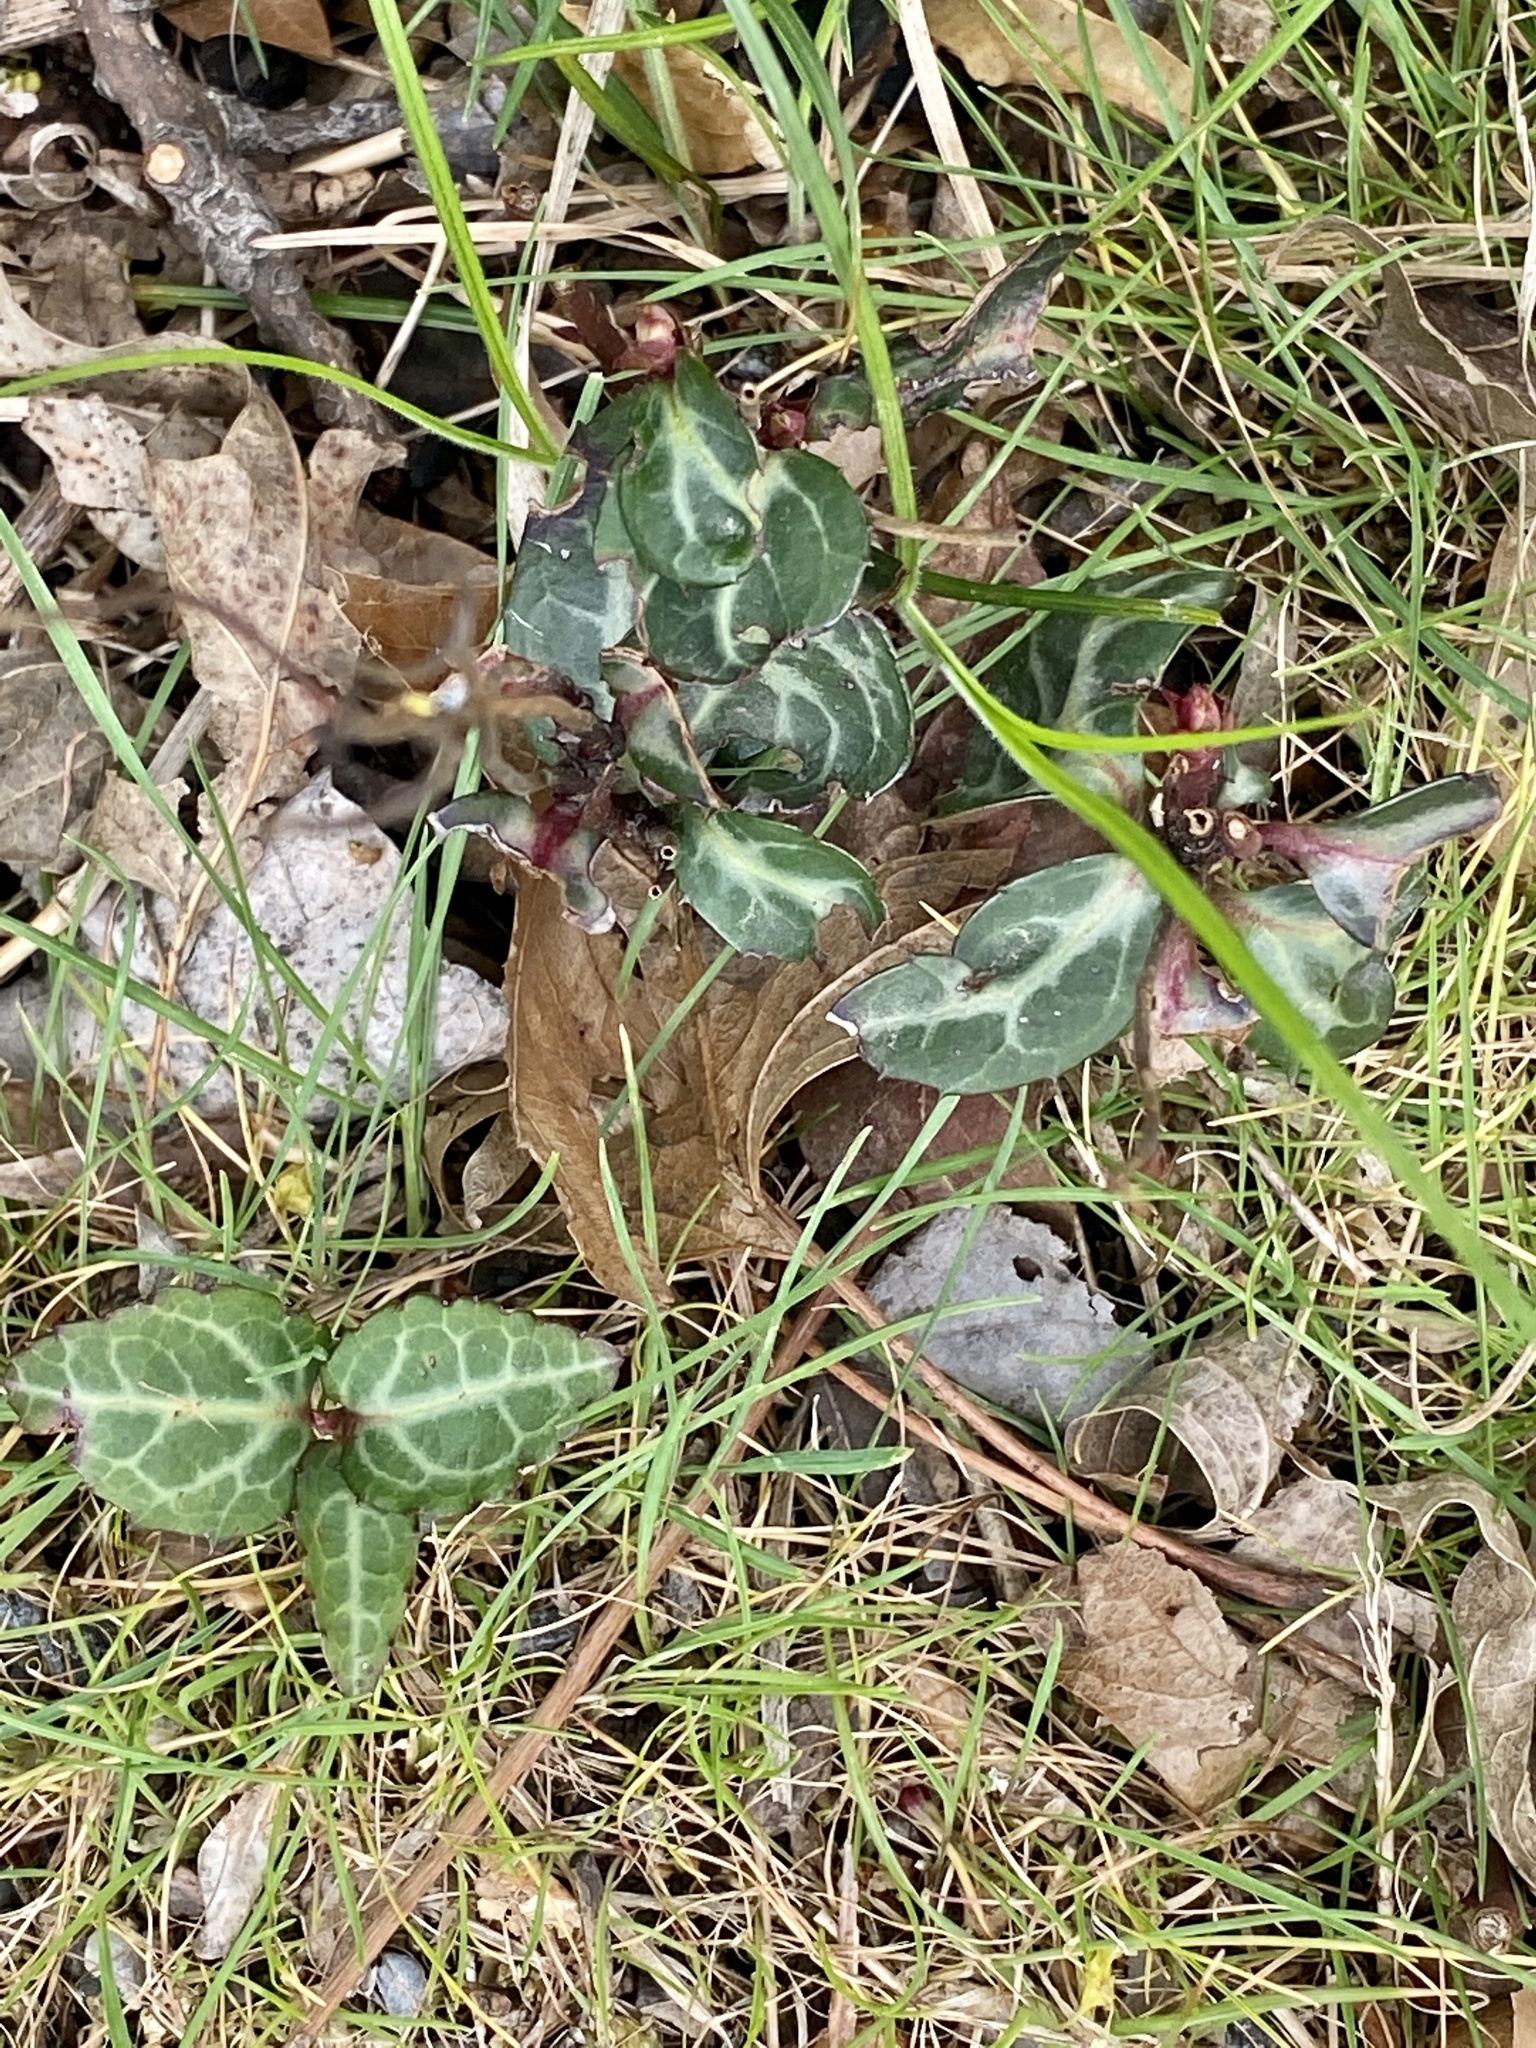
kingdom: Plantae
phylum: Tracheophyta
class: Magnoliopsida
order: Ericales
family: Ericaceae
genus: Chimaphila
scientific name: Chimaphila maculata
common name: Spotted pipsissewa
